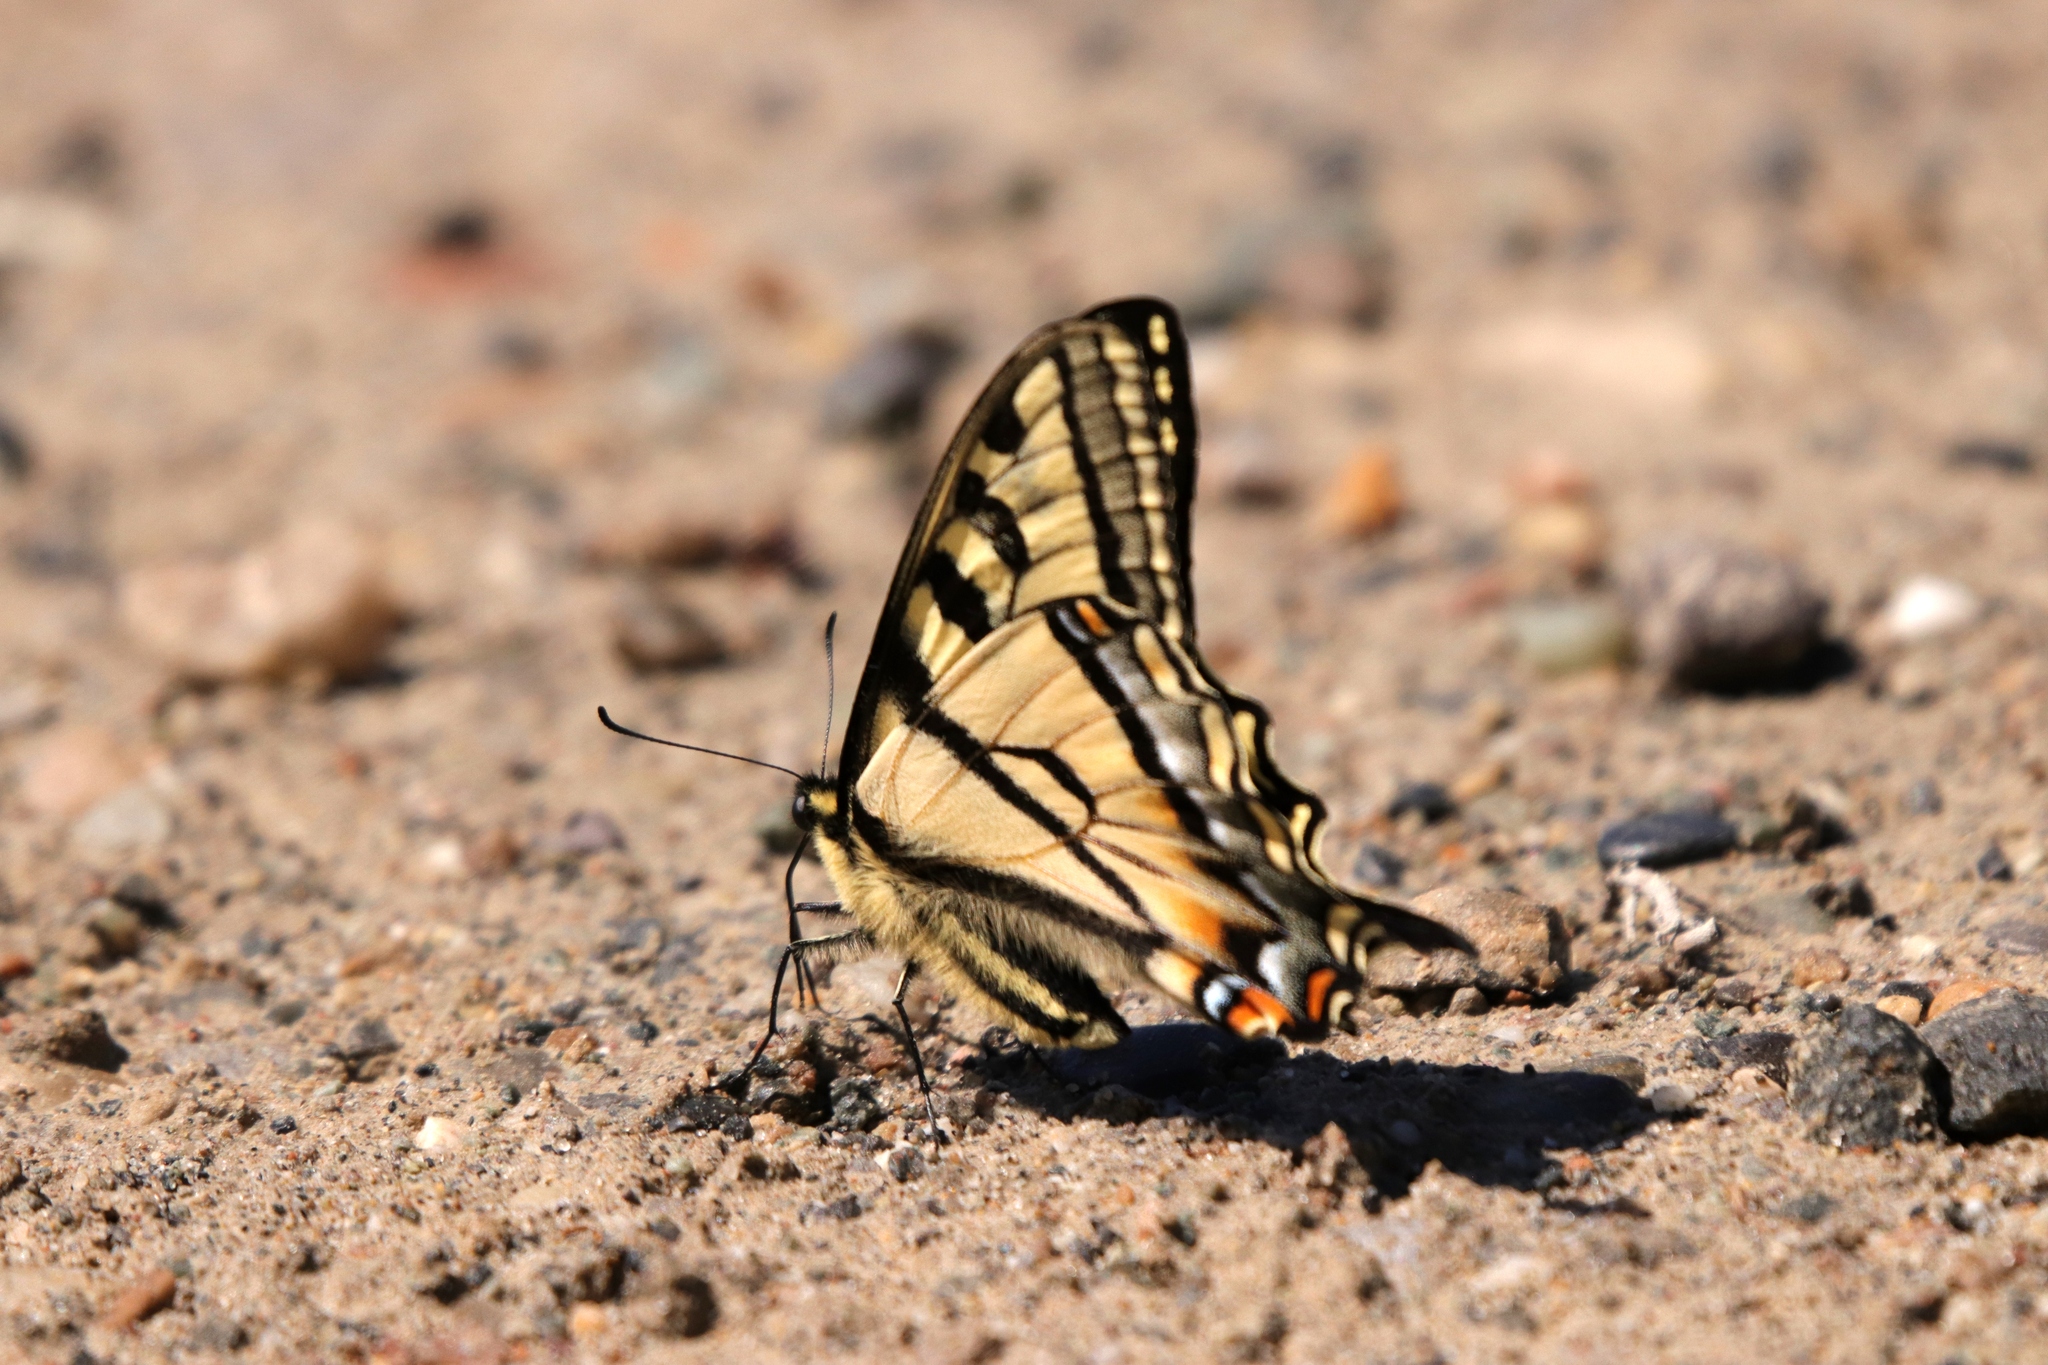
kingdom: Animalia
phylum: Arthropoda
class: Insecta
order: Lepidoptera
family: Papilionidae
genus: Papilio
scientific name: Papilio canadensis
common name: Canadian tiger swallowtail
